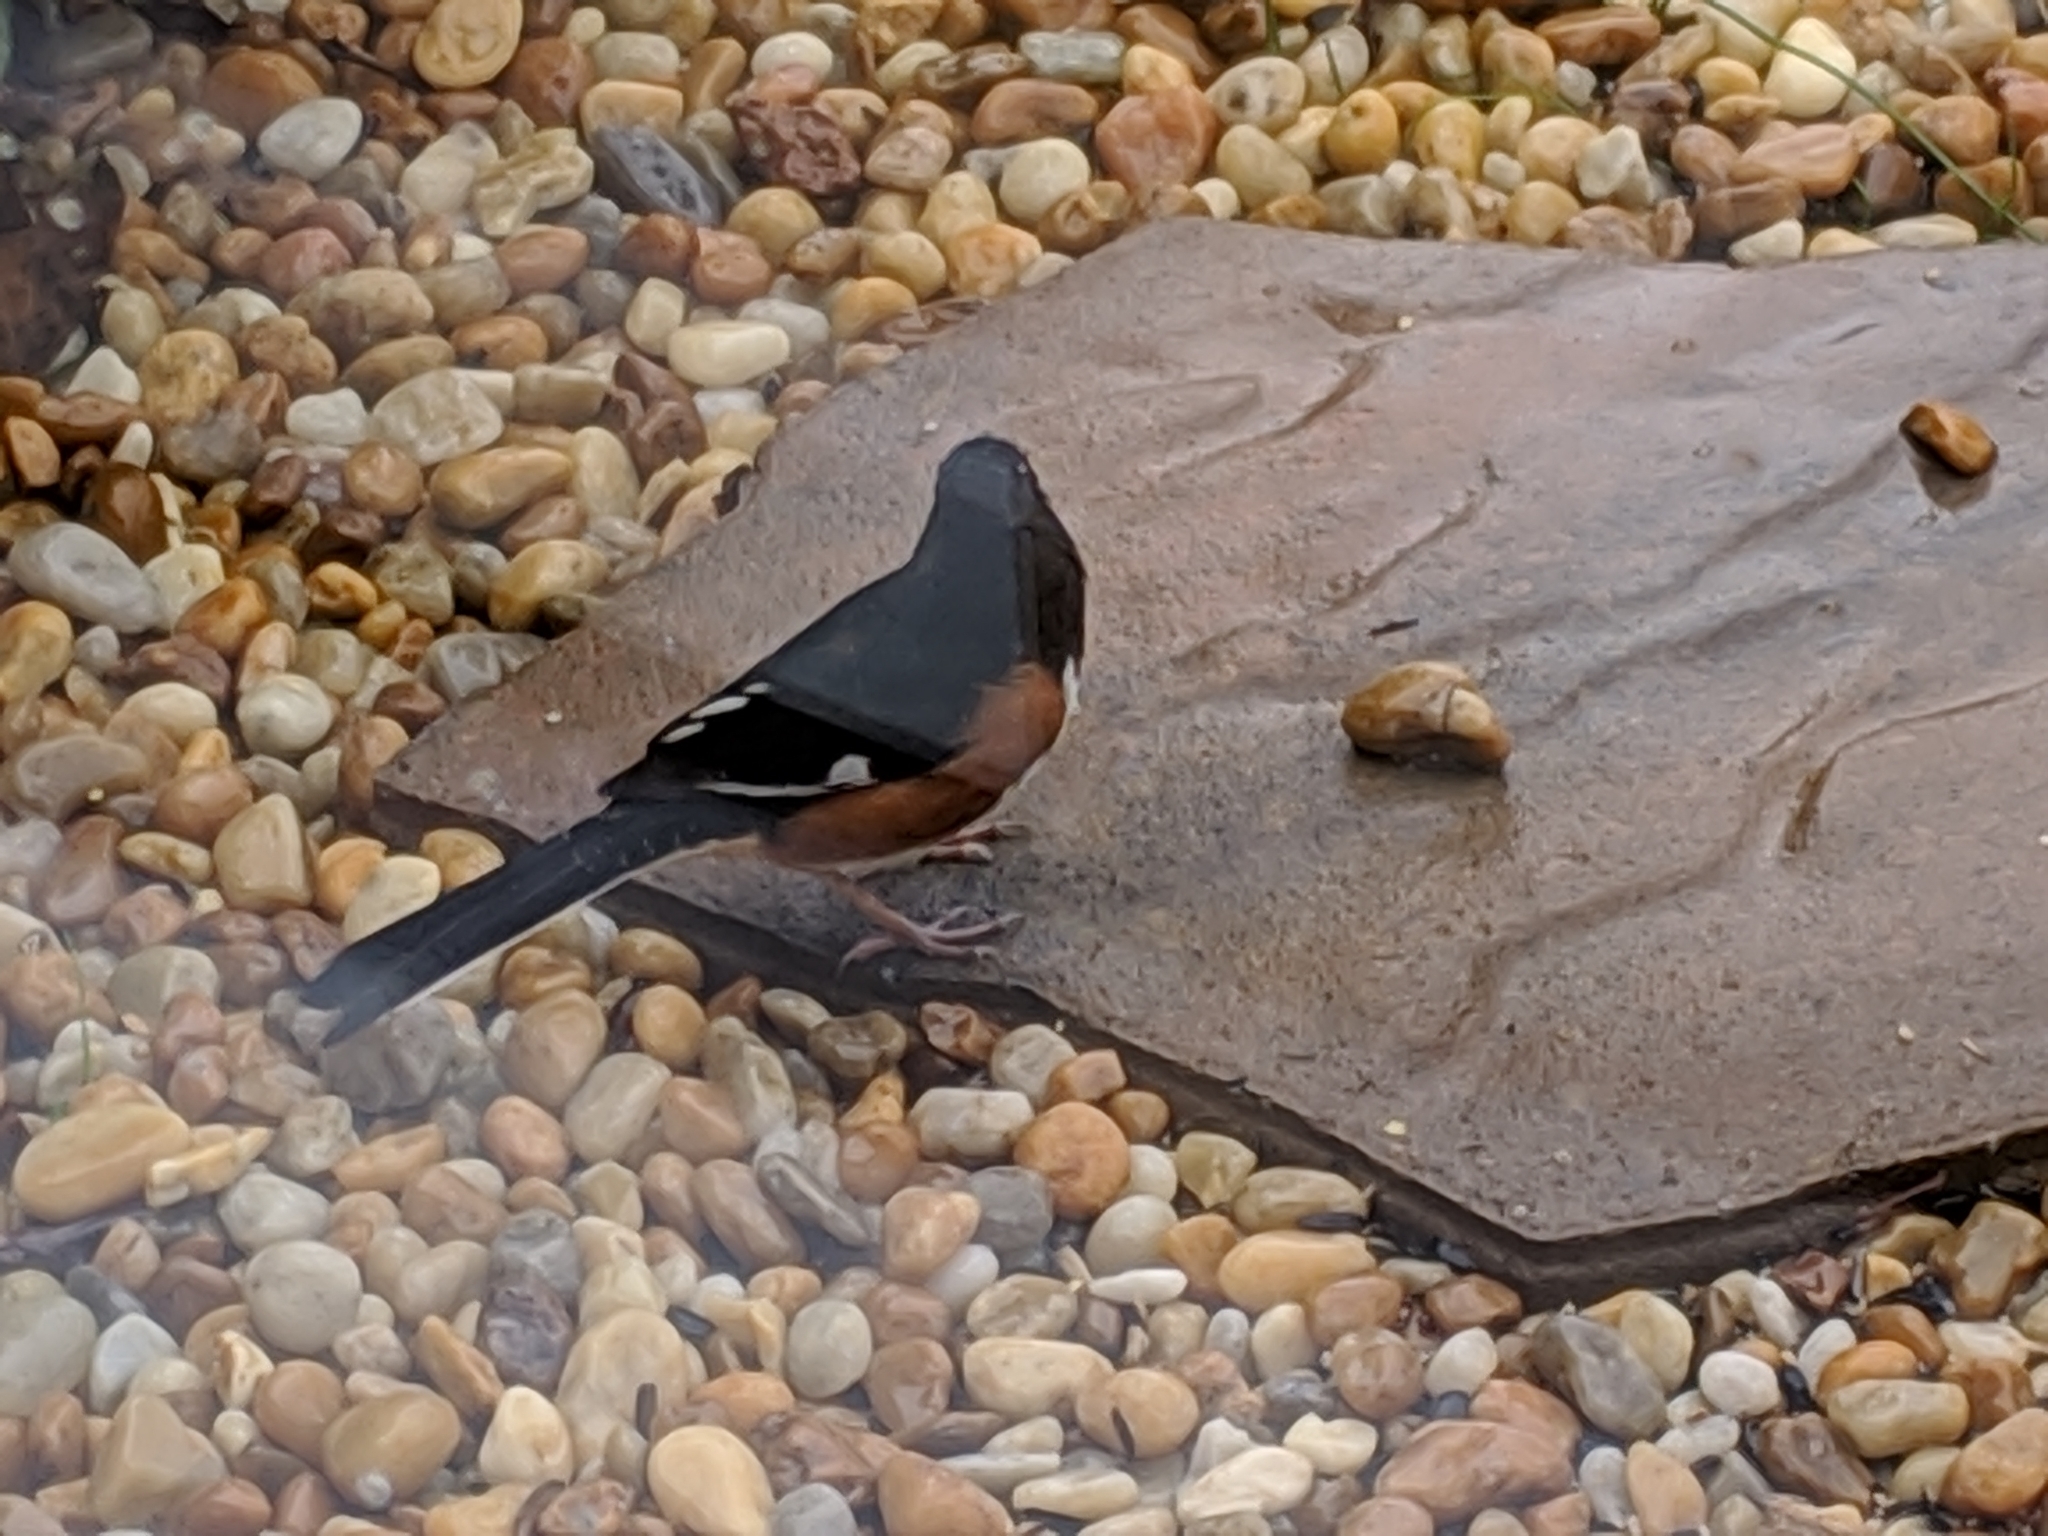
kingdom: Animalia
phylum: Chordata
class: Aves
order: Passeriformes
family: Passerellidae
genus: Pipilo
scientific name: Pipilo erythrophthalmus
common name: Eastern towhee
